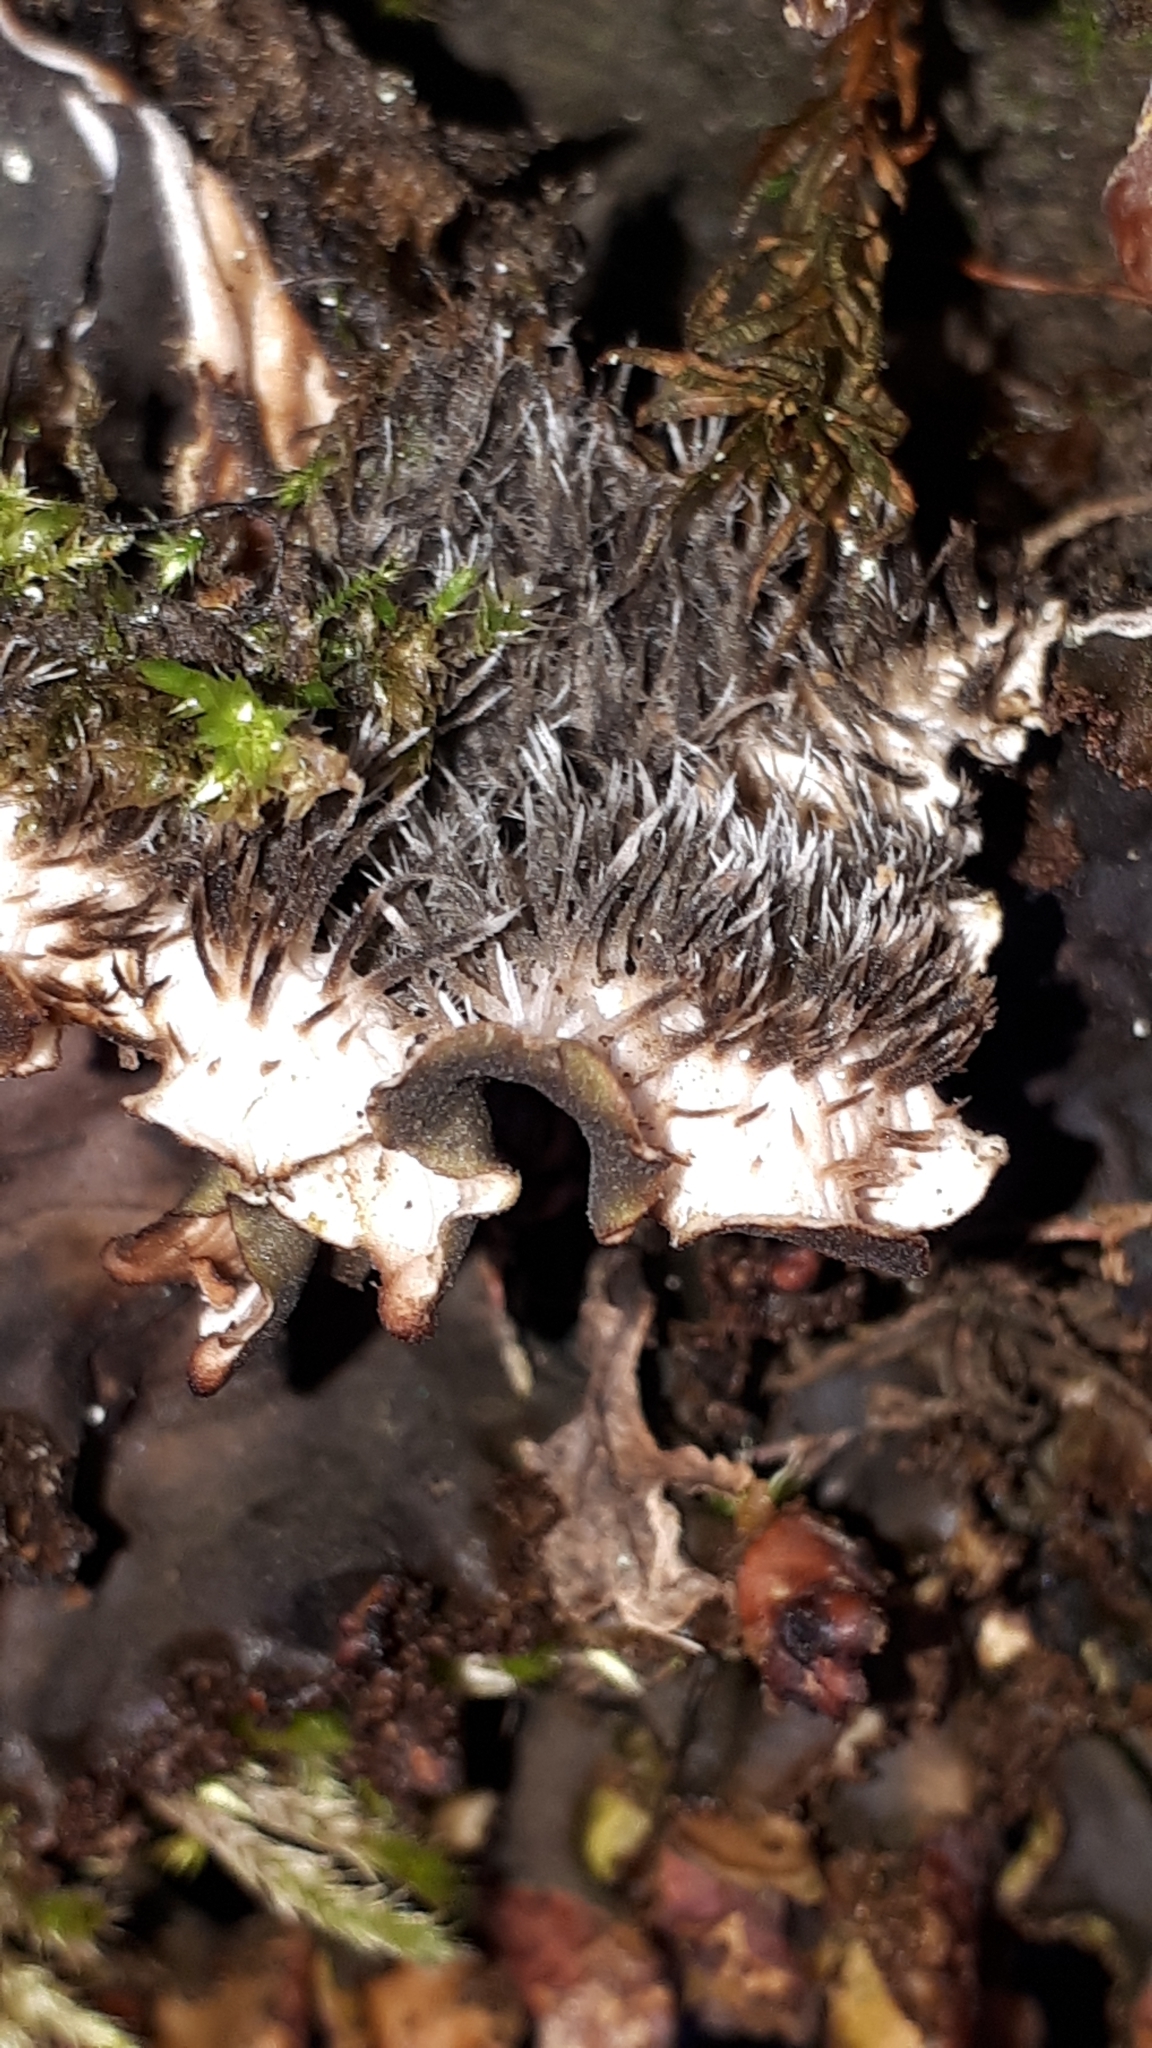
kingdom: Fungi
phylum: Ascomycota
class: Lecanoromycetes
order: Peltigerales
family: Peltigeraceae
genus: Peltigera
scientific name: Peltigera praetextata
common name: Scaly dog-lichen
